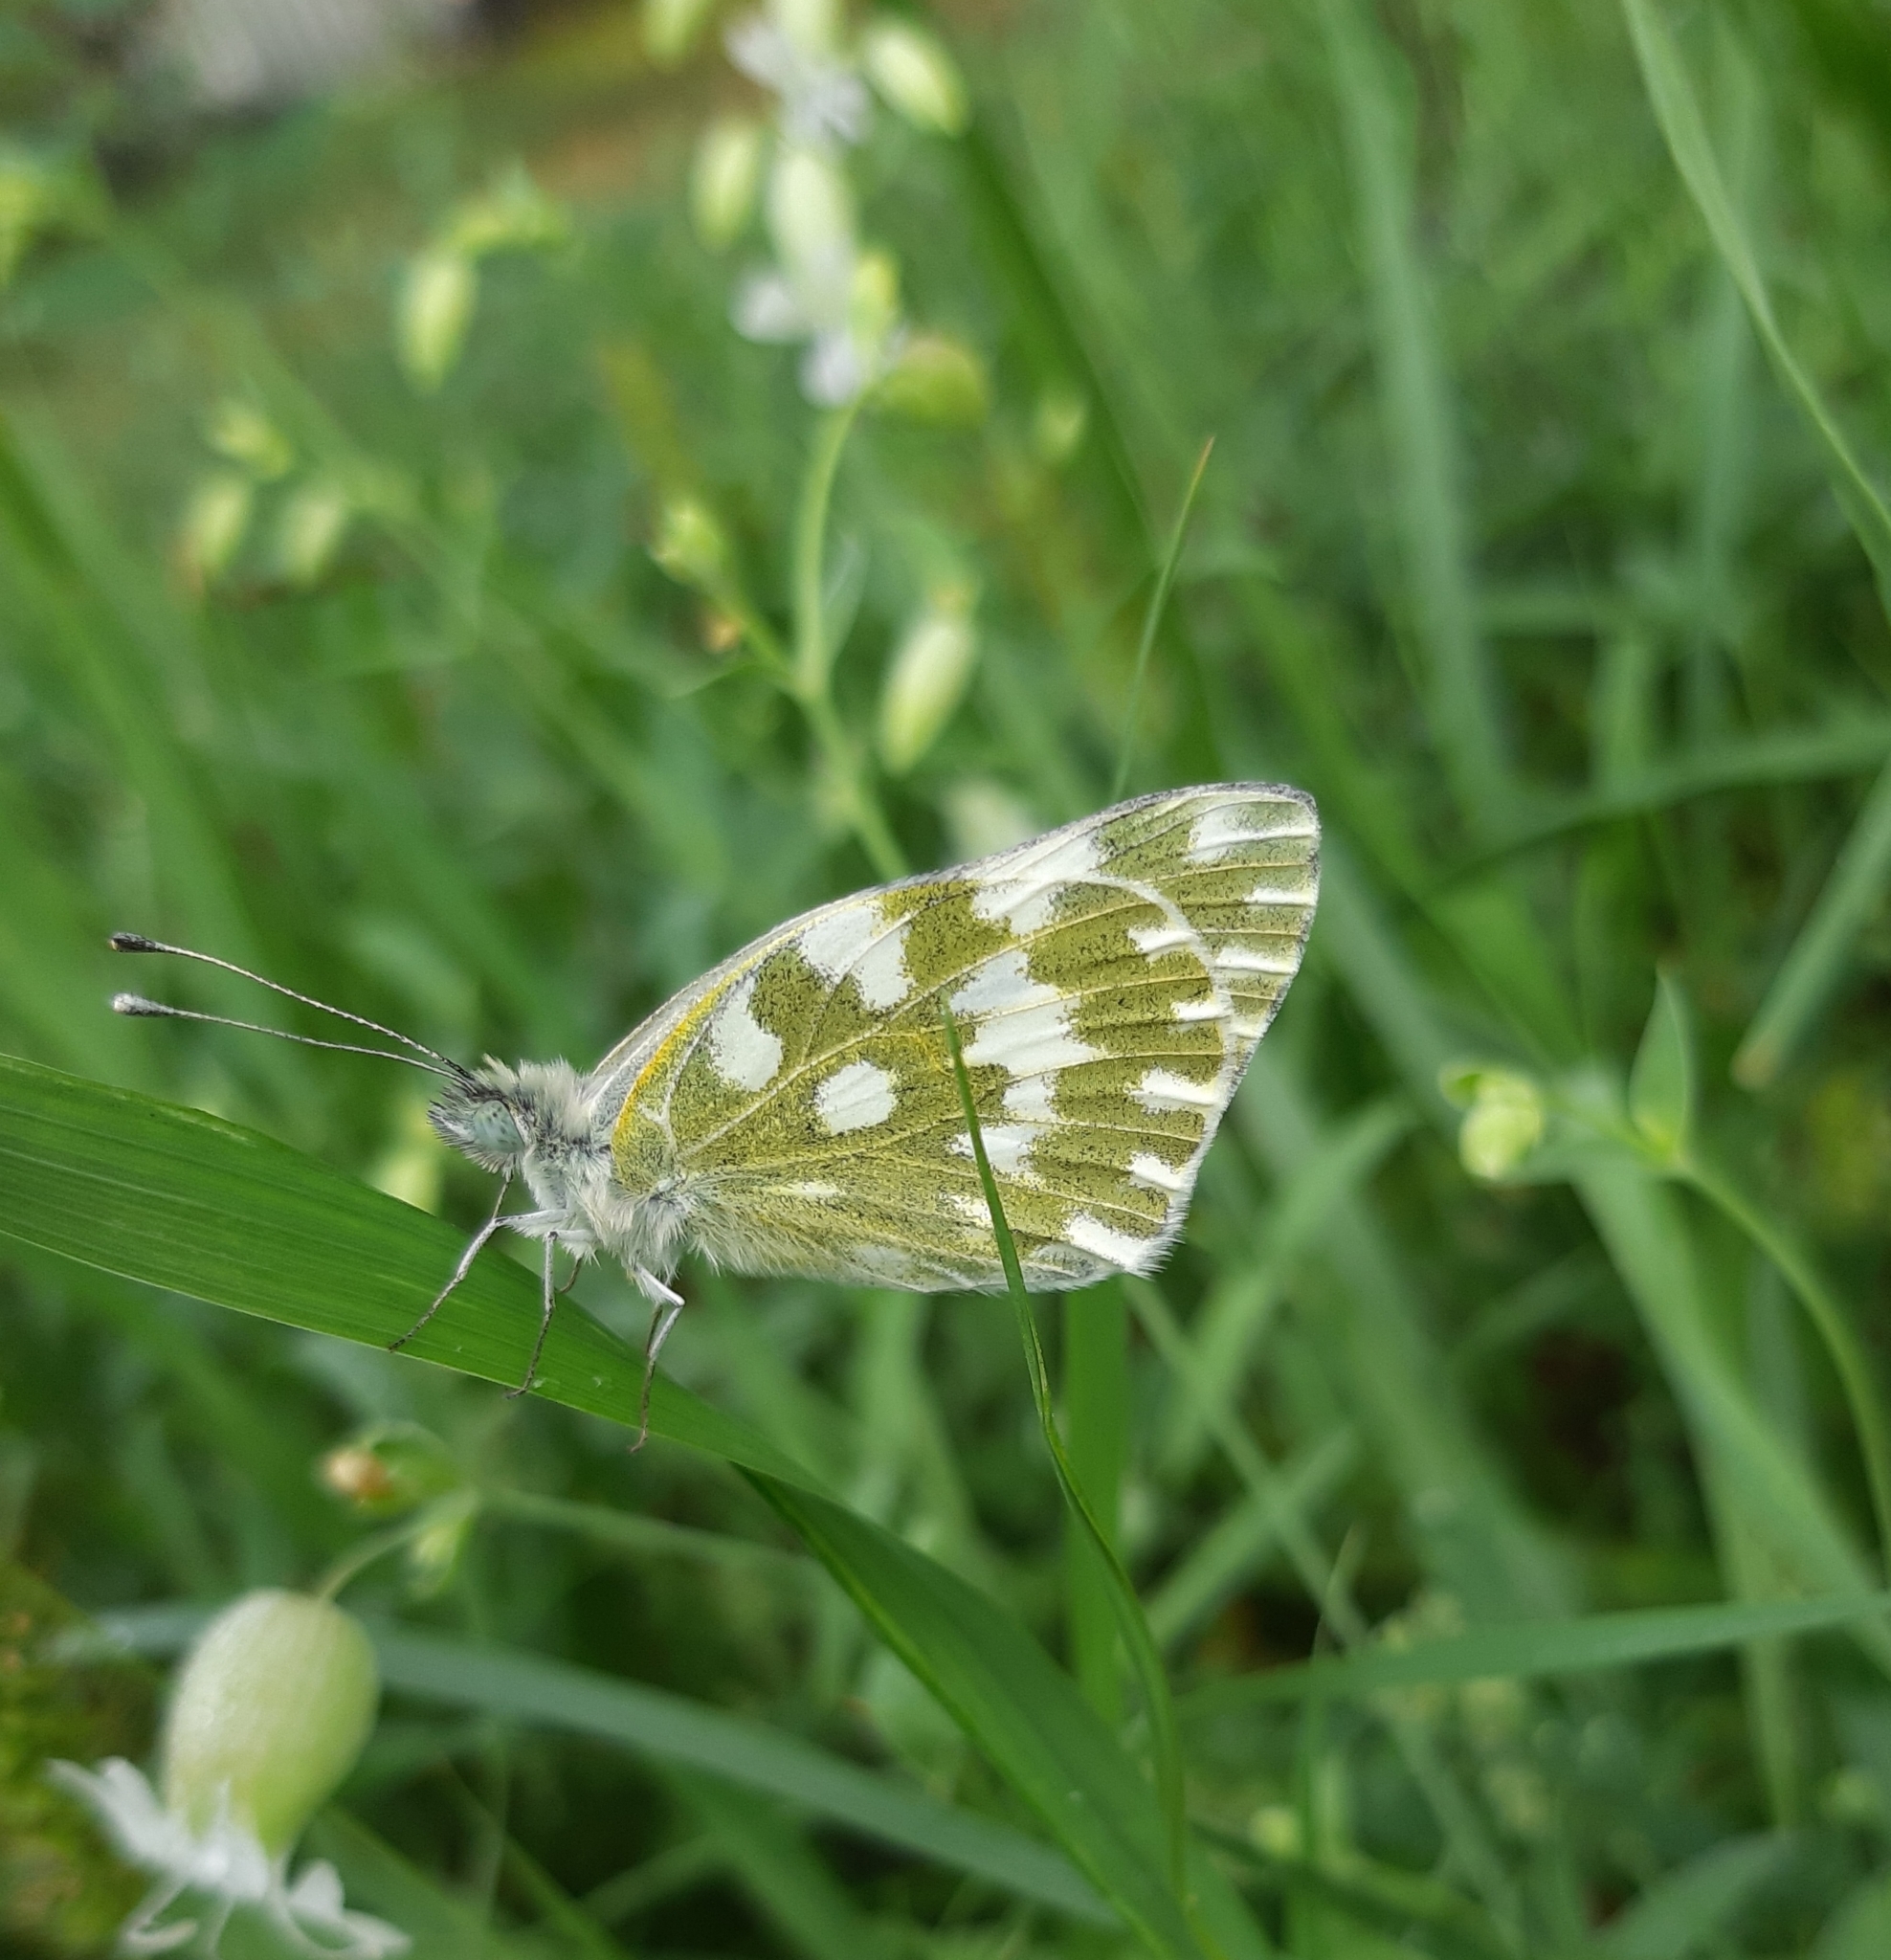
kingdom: Animalia
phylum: Arthropoda
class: Insecta
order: Lepidoptera
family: Pieridae
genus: Pontia
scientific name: Pontia edusa
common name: Eastern bath white
